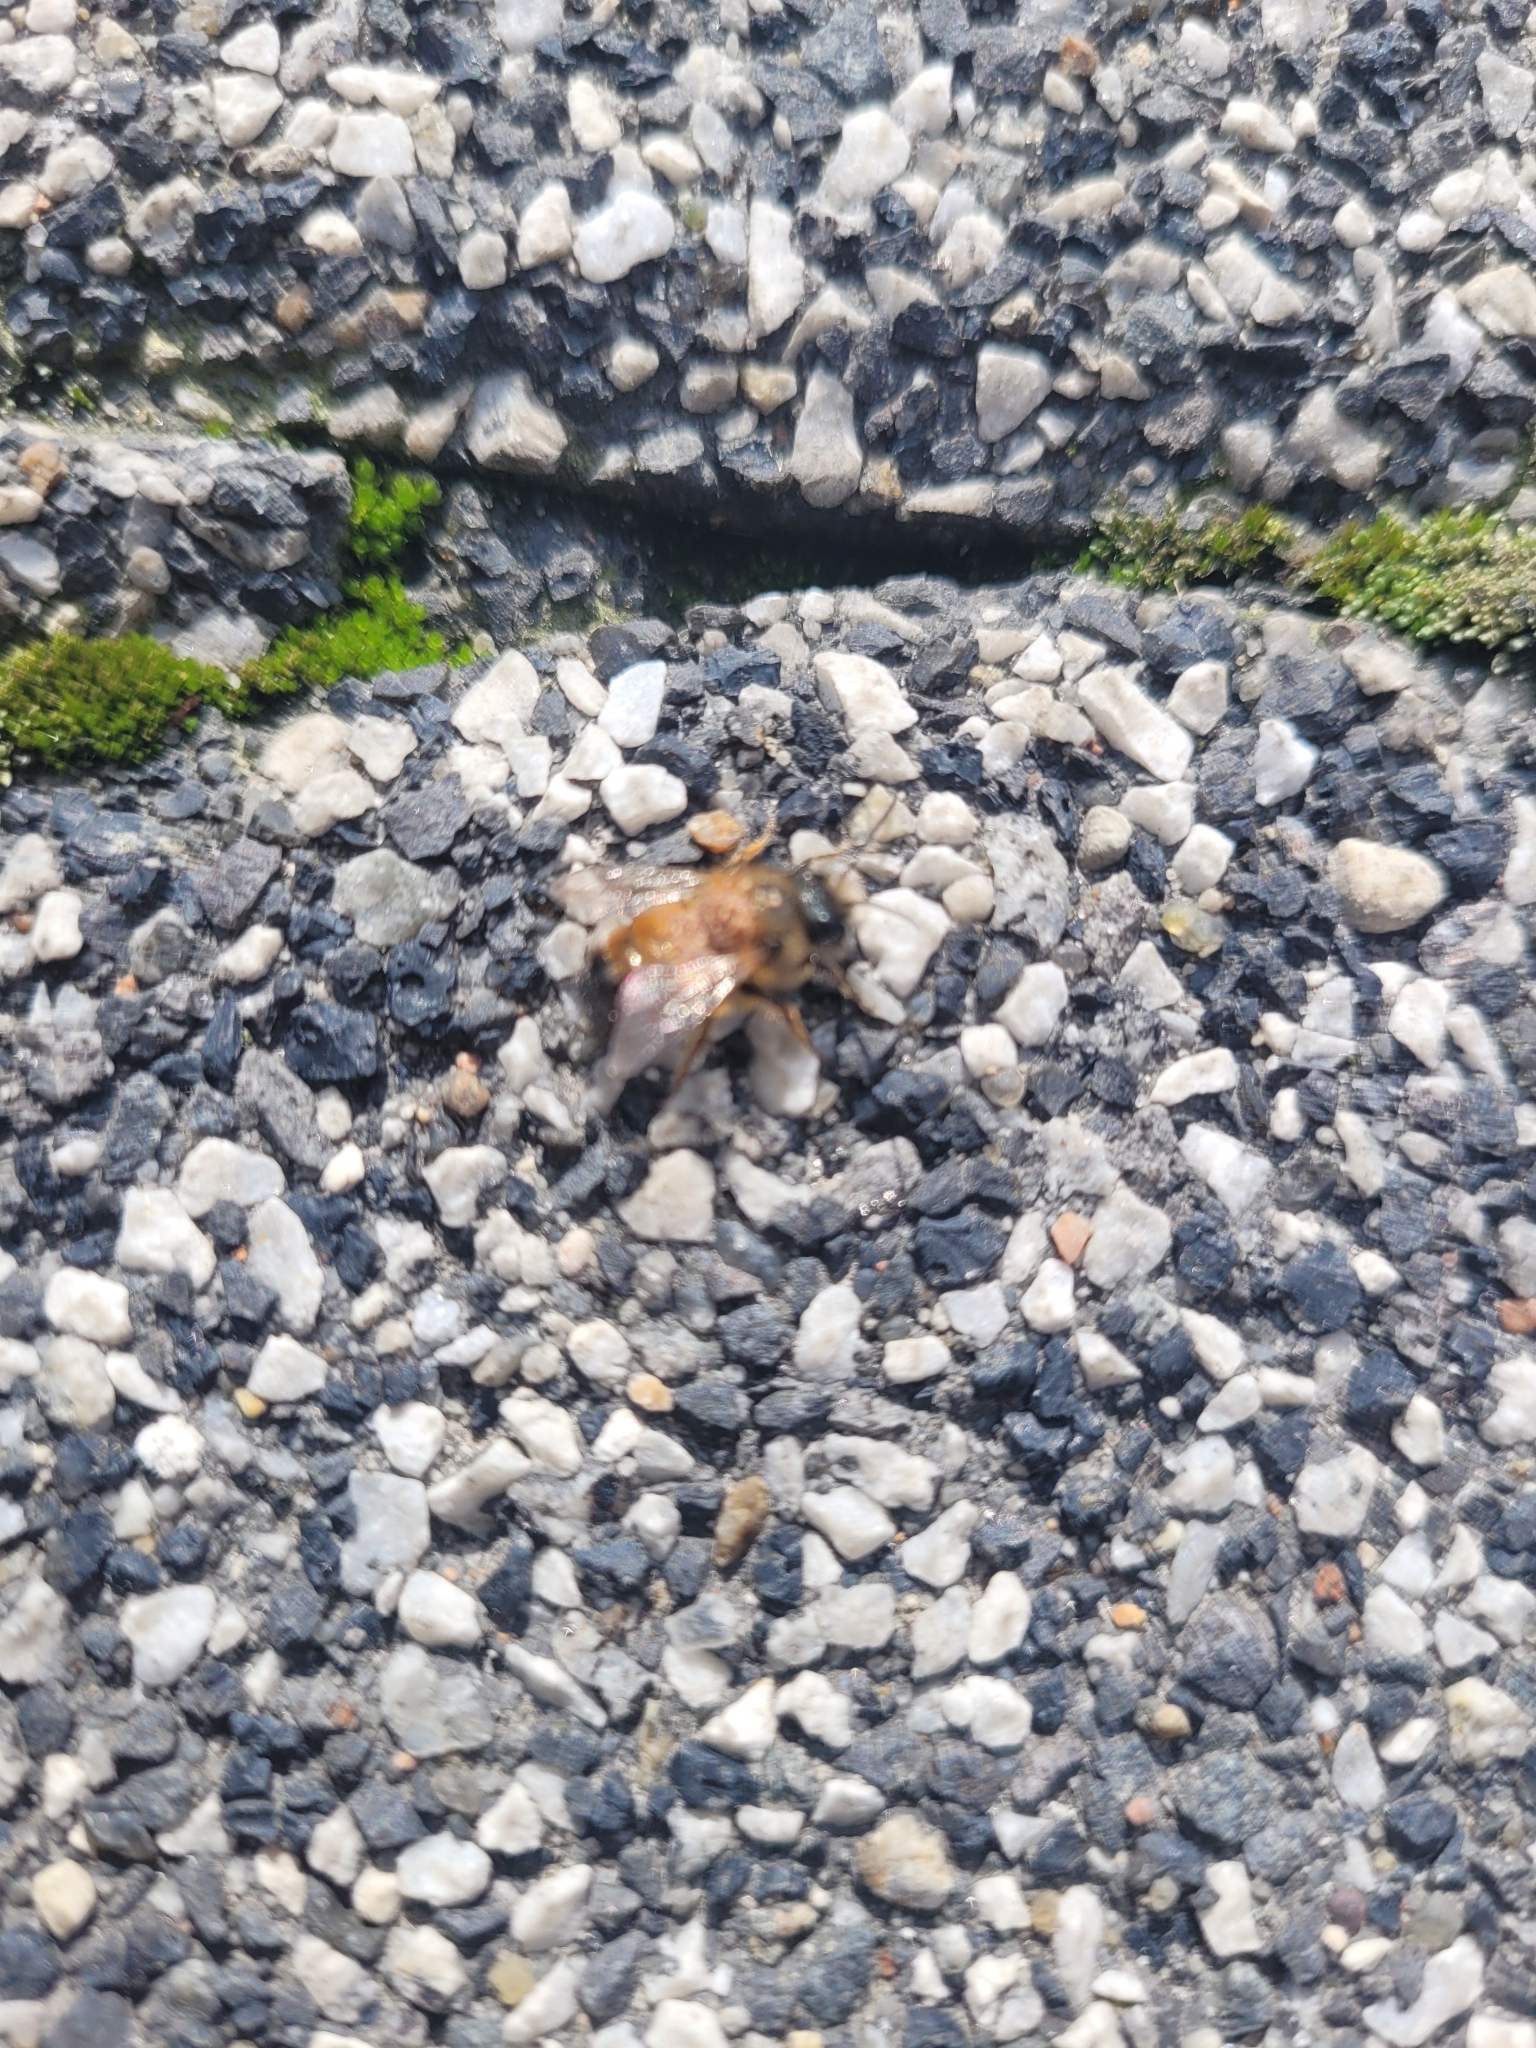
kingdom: Animalia
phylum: Arthropoda
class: Insecta
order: Hymenoptera
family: Megachilidae
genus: Osmia
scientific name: Osmia bicornis
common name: Red mason bee
